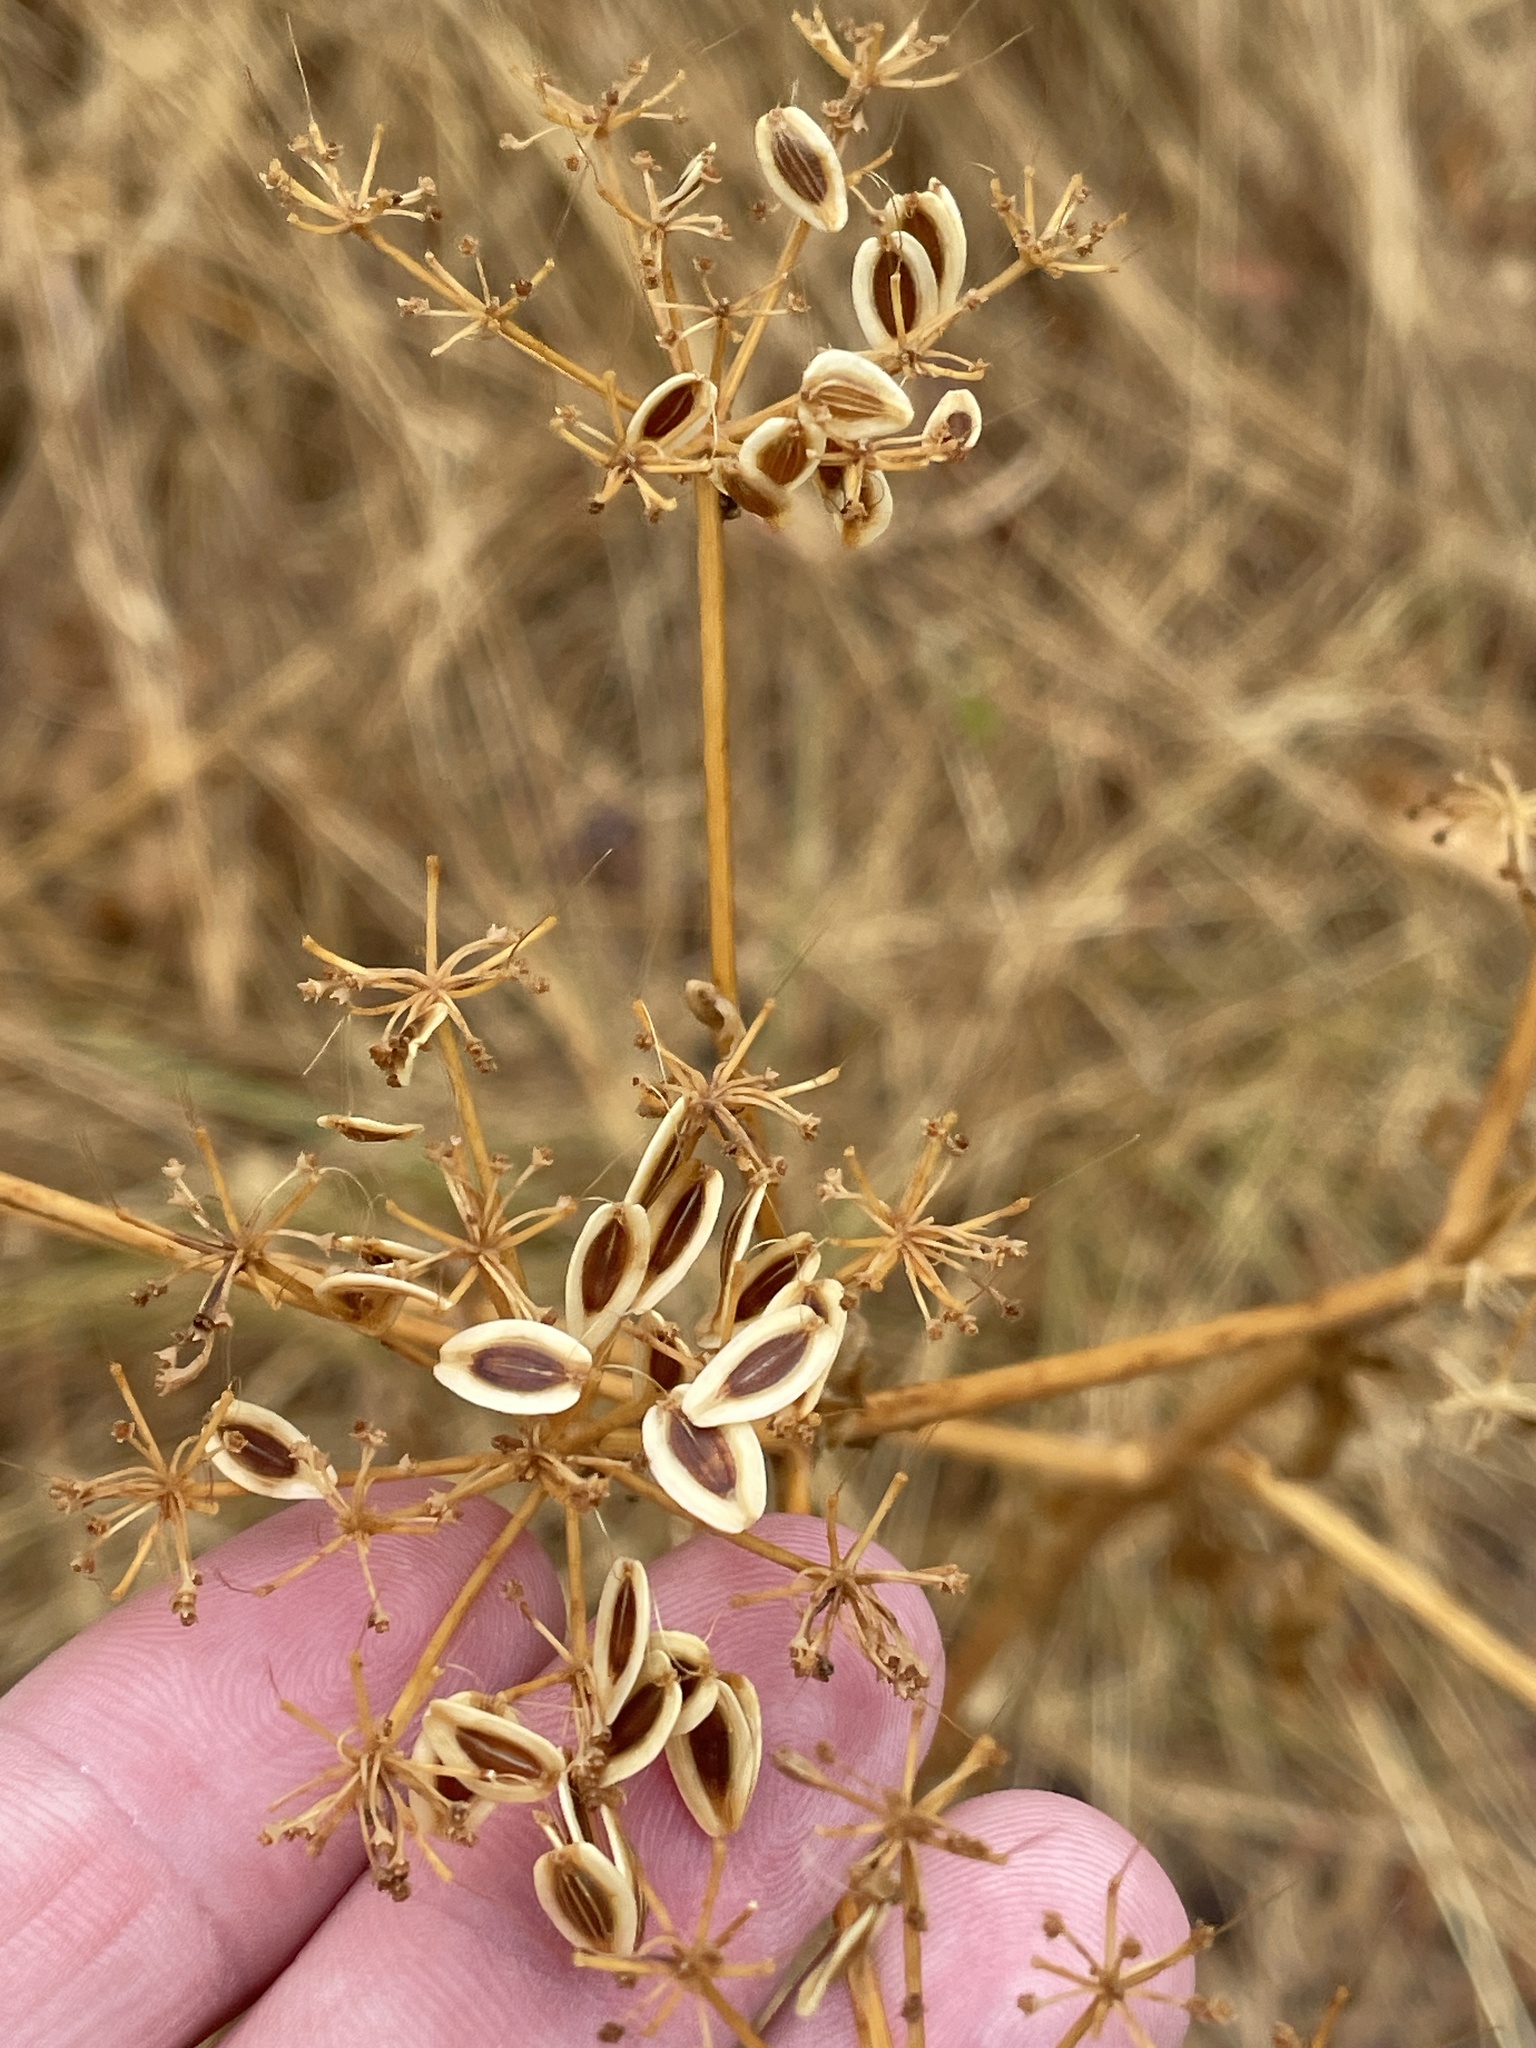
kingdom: Plantae
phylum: Tracheophyta
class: Magnoliopsida
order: Apiales
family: Apiaceae
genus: Polytaenia
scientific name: Polytaenia texana
